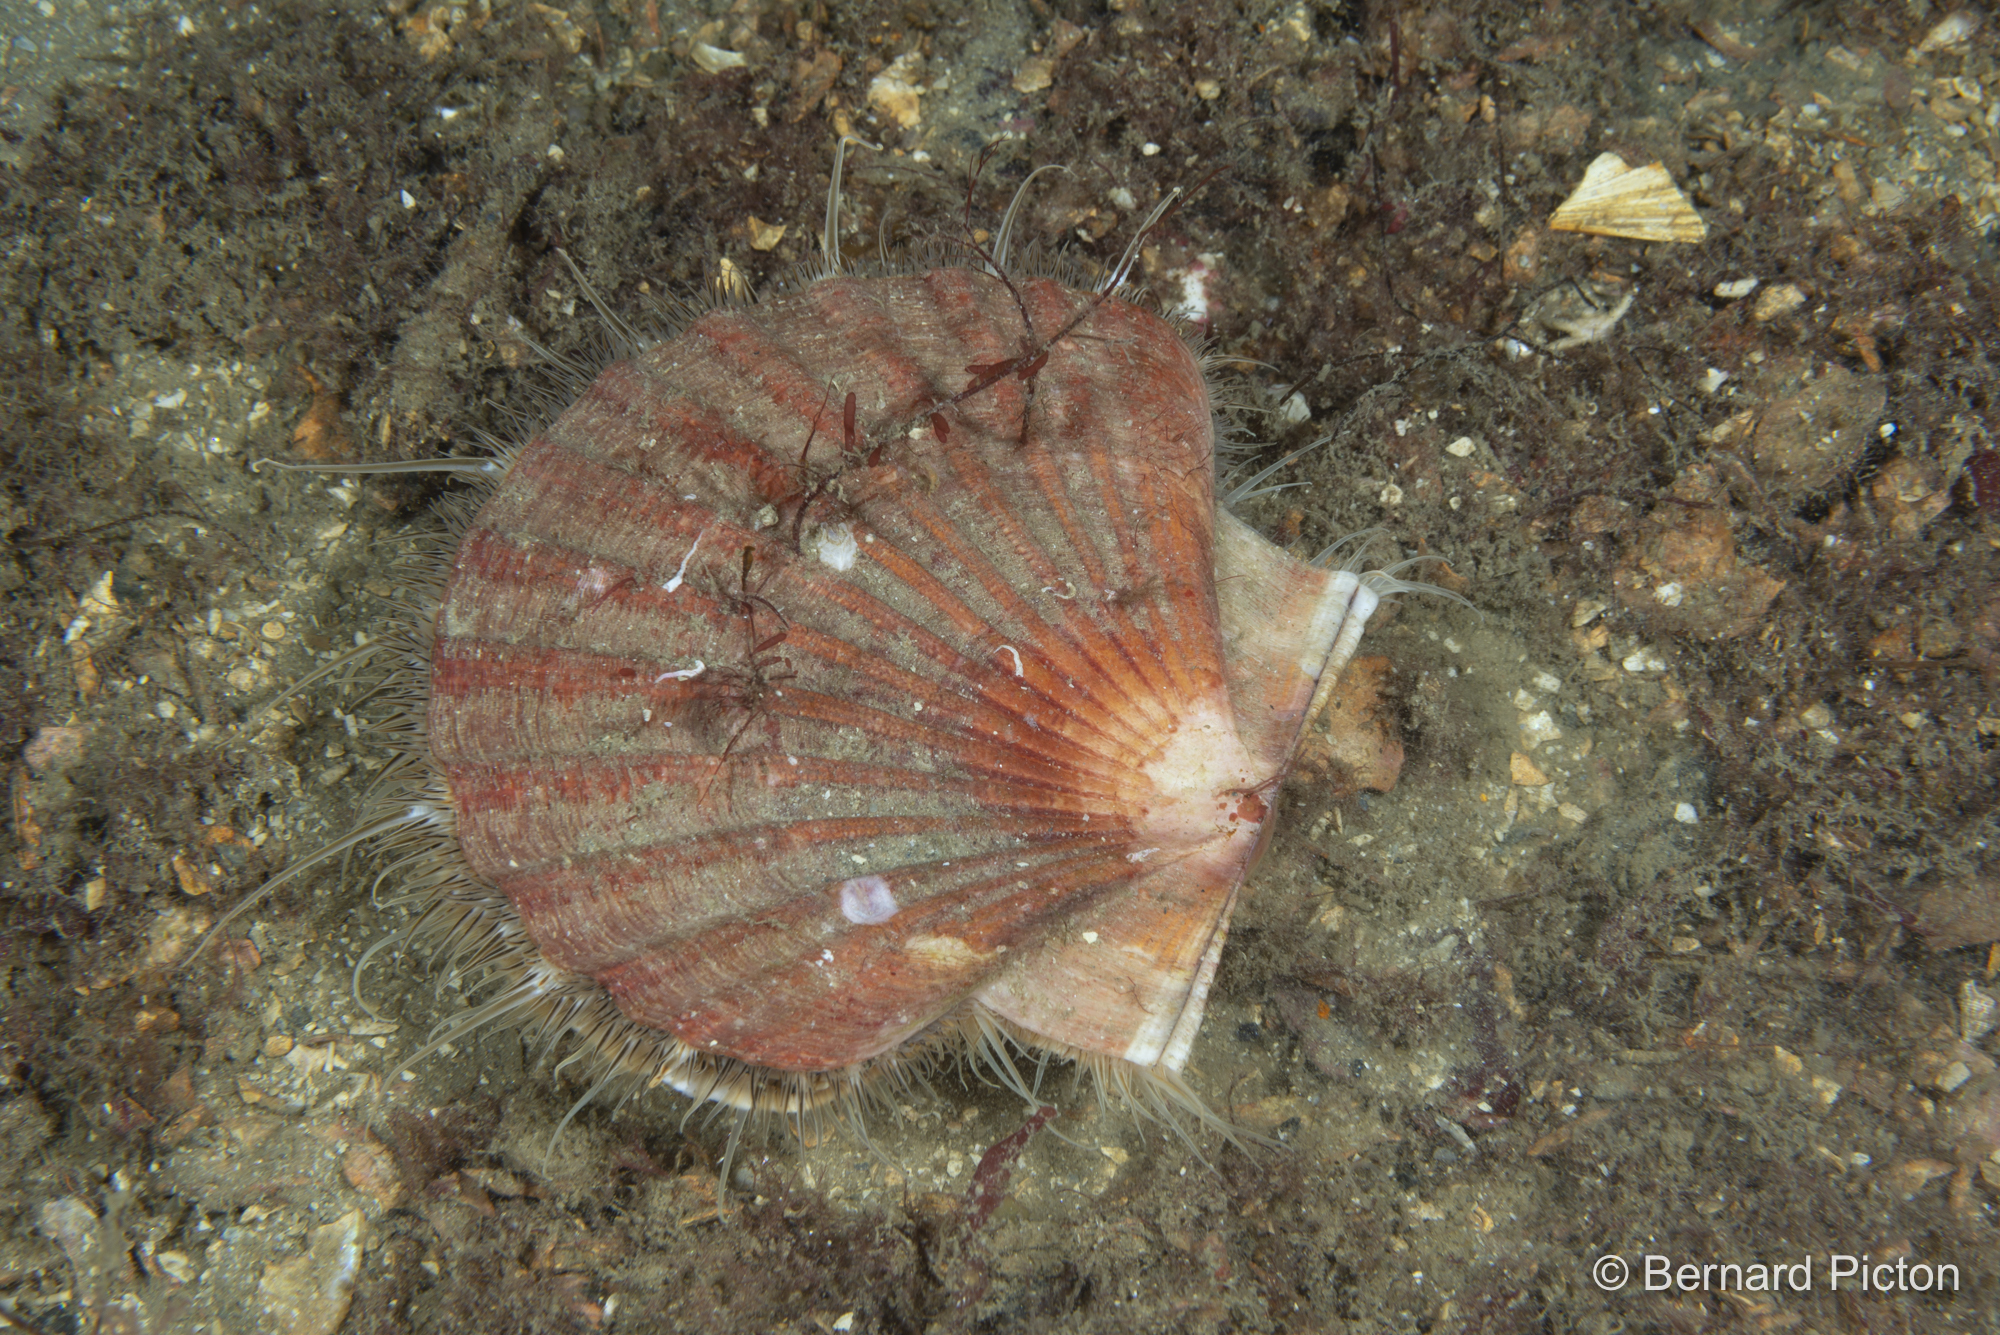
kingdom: Animalia
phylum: Mollusca
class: Bivalvia
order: Pectinida
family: Pectinidae
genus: Pecten
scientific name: Pecten maximus
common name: Great scallop
